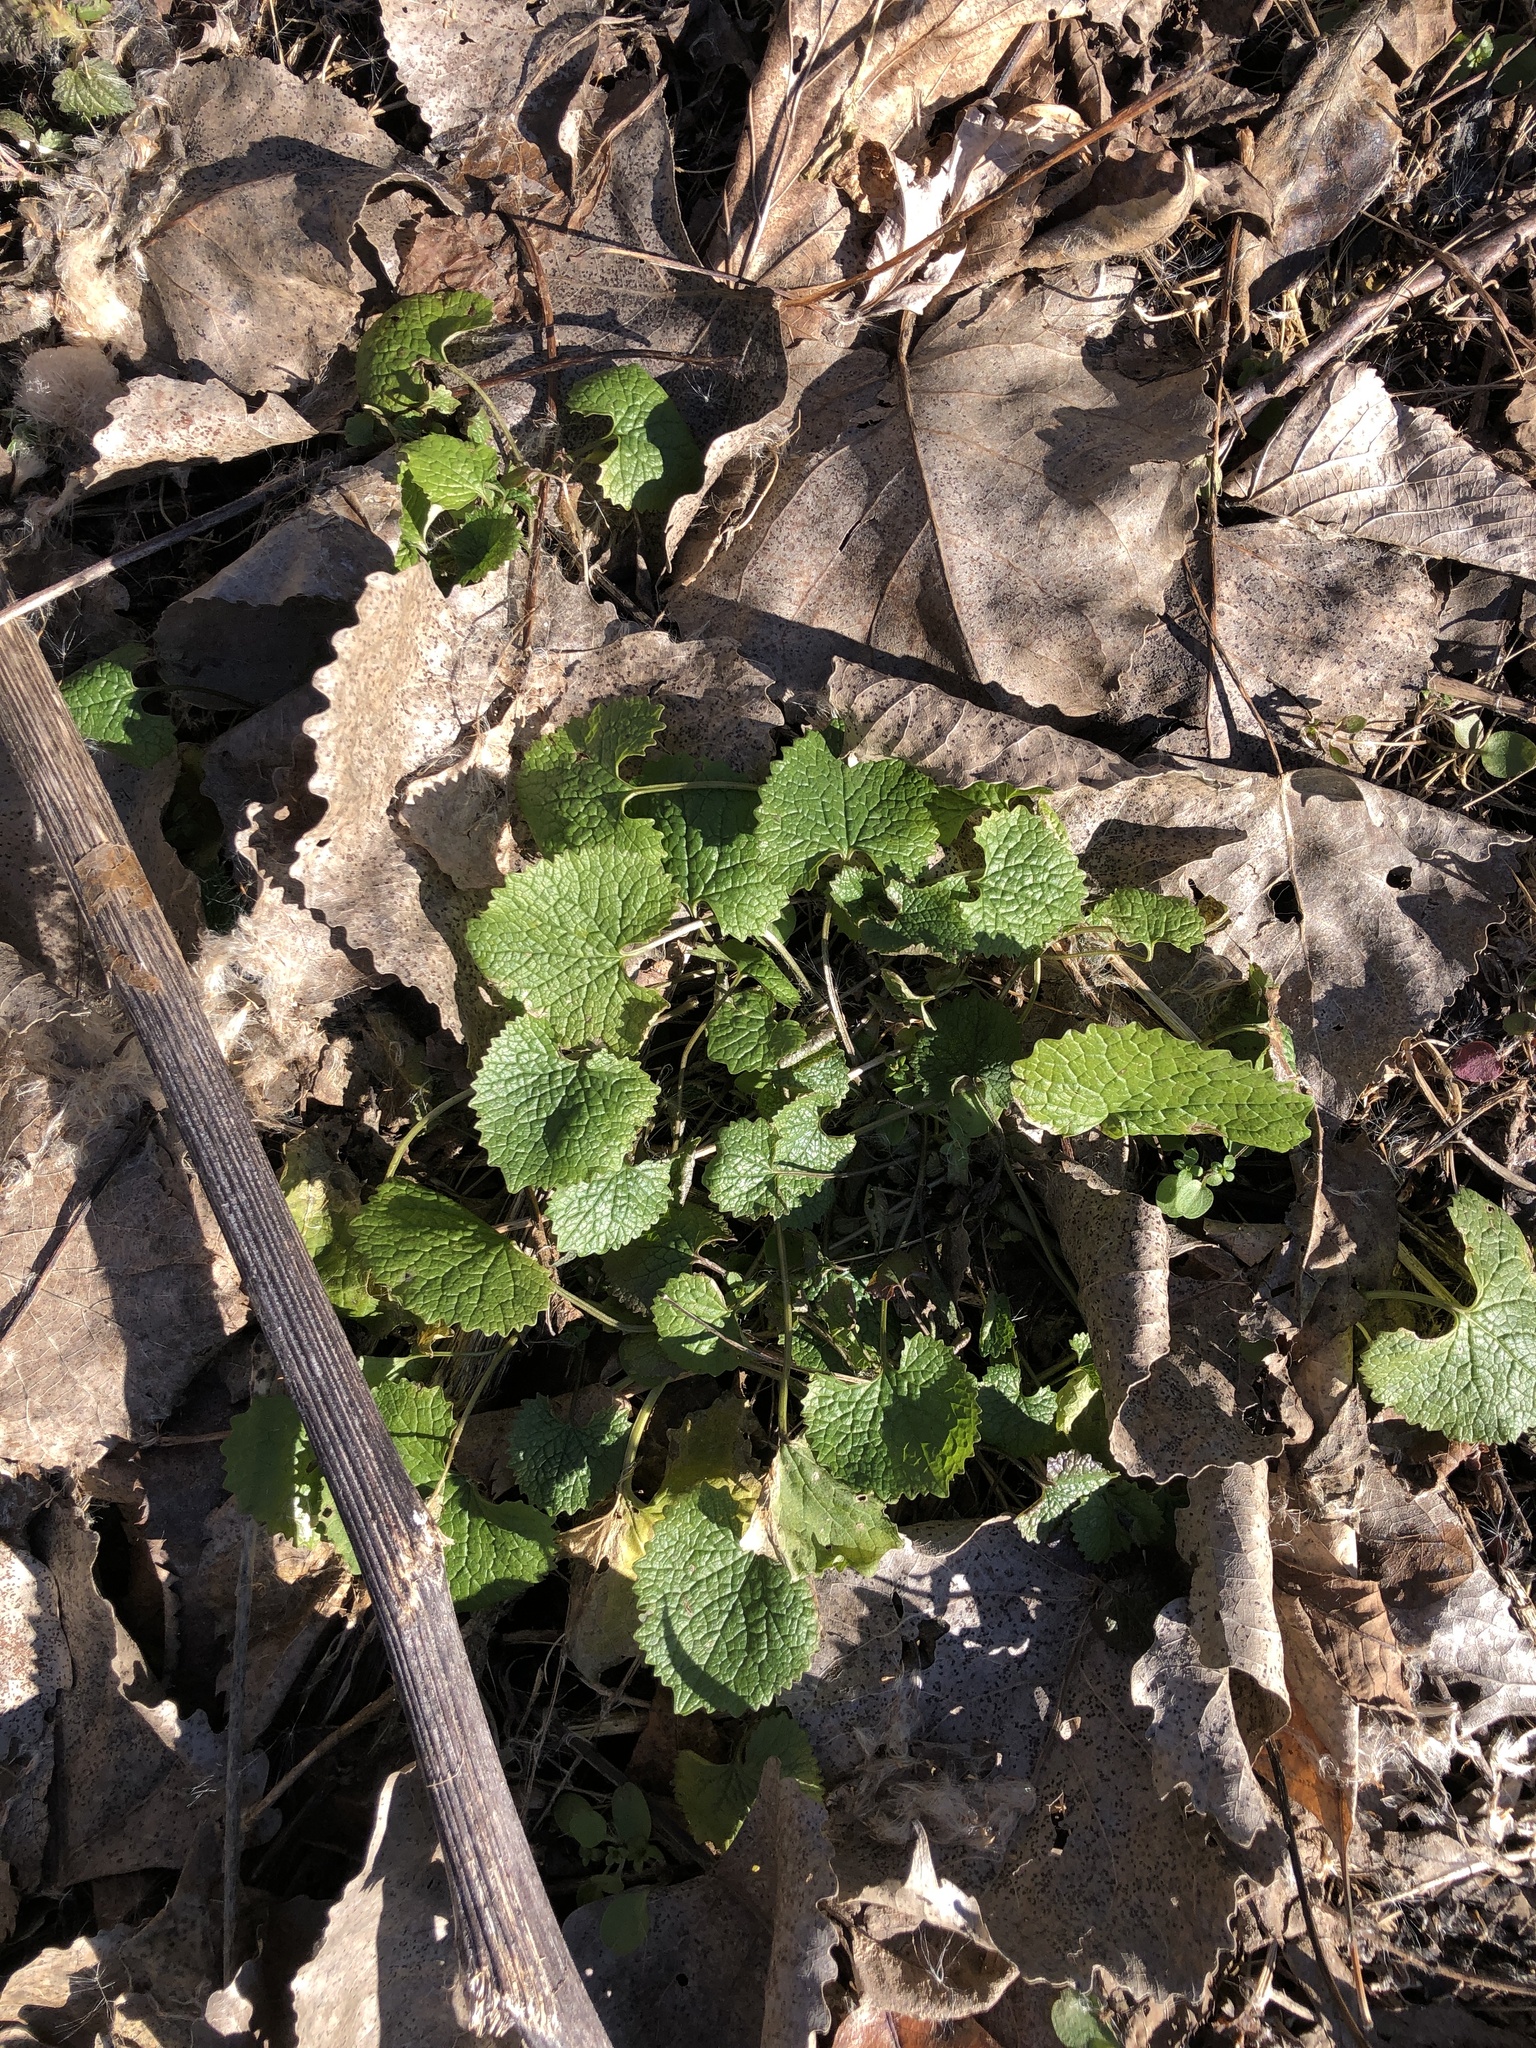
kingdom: Plantae
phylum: Tracheophyta
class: Magnoliopsida
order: Brassicales
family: Brassicaceae
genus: Alliaria
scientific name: Alliaria petiolata
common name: Garlic mustard
